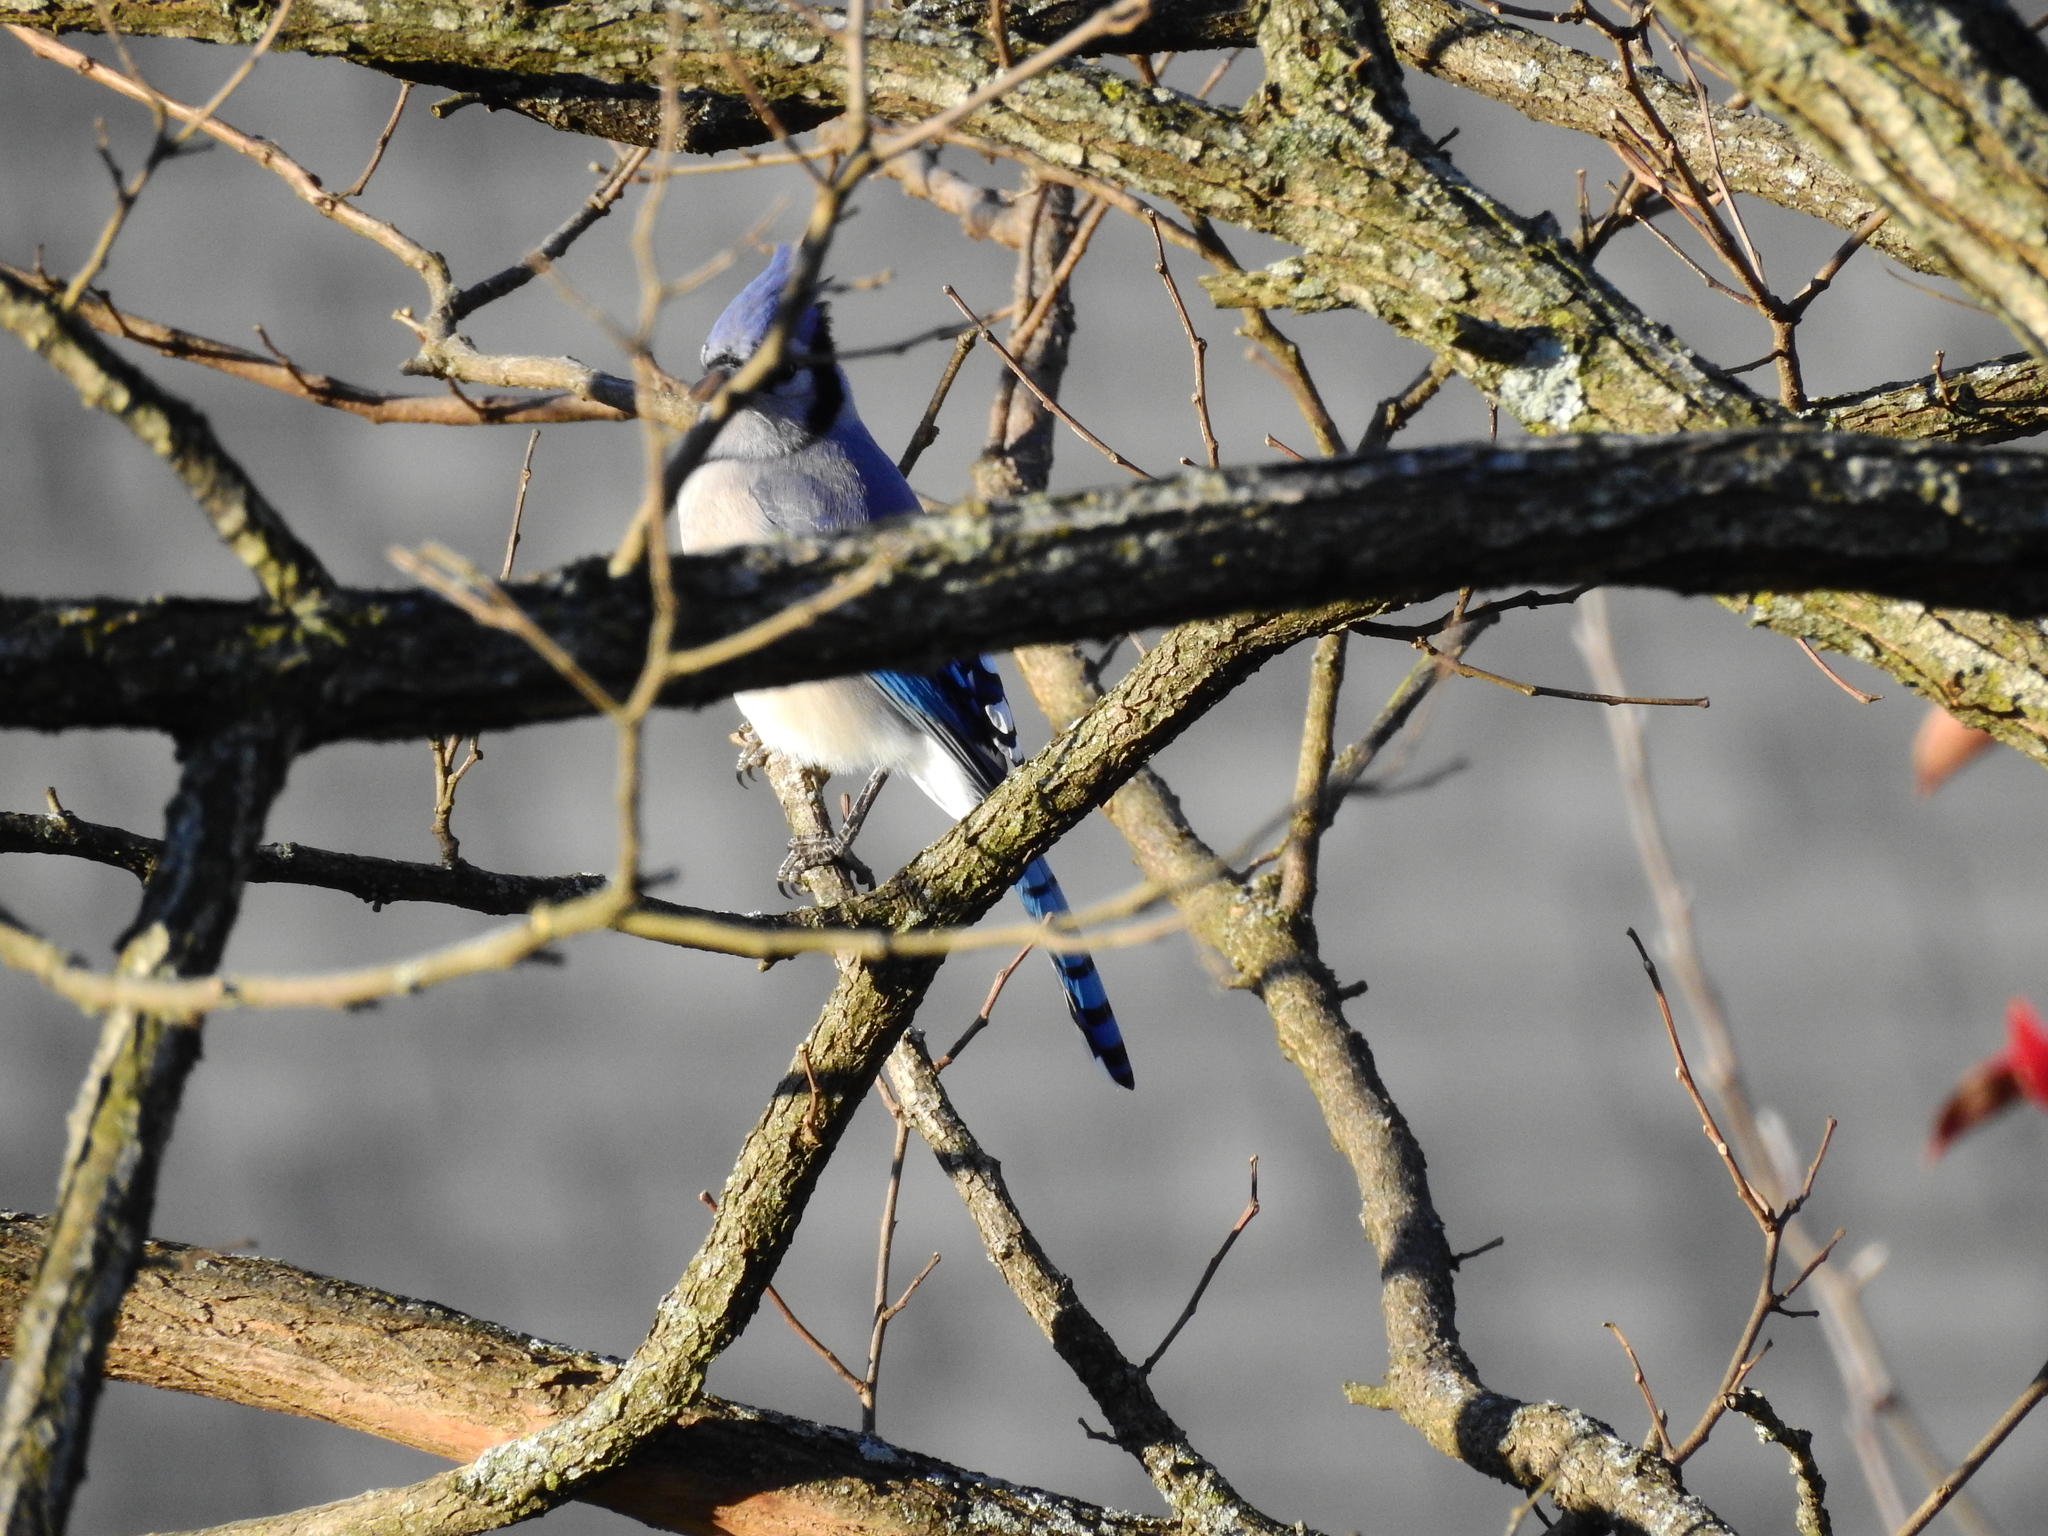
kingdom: Animalia
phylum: Chordata
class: Aves
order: Passeriformes
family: Corvidae
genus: Cyanocitta
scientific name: Cyanocitta cristata
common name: Blue jay
